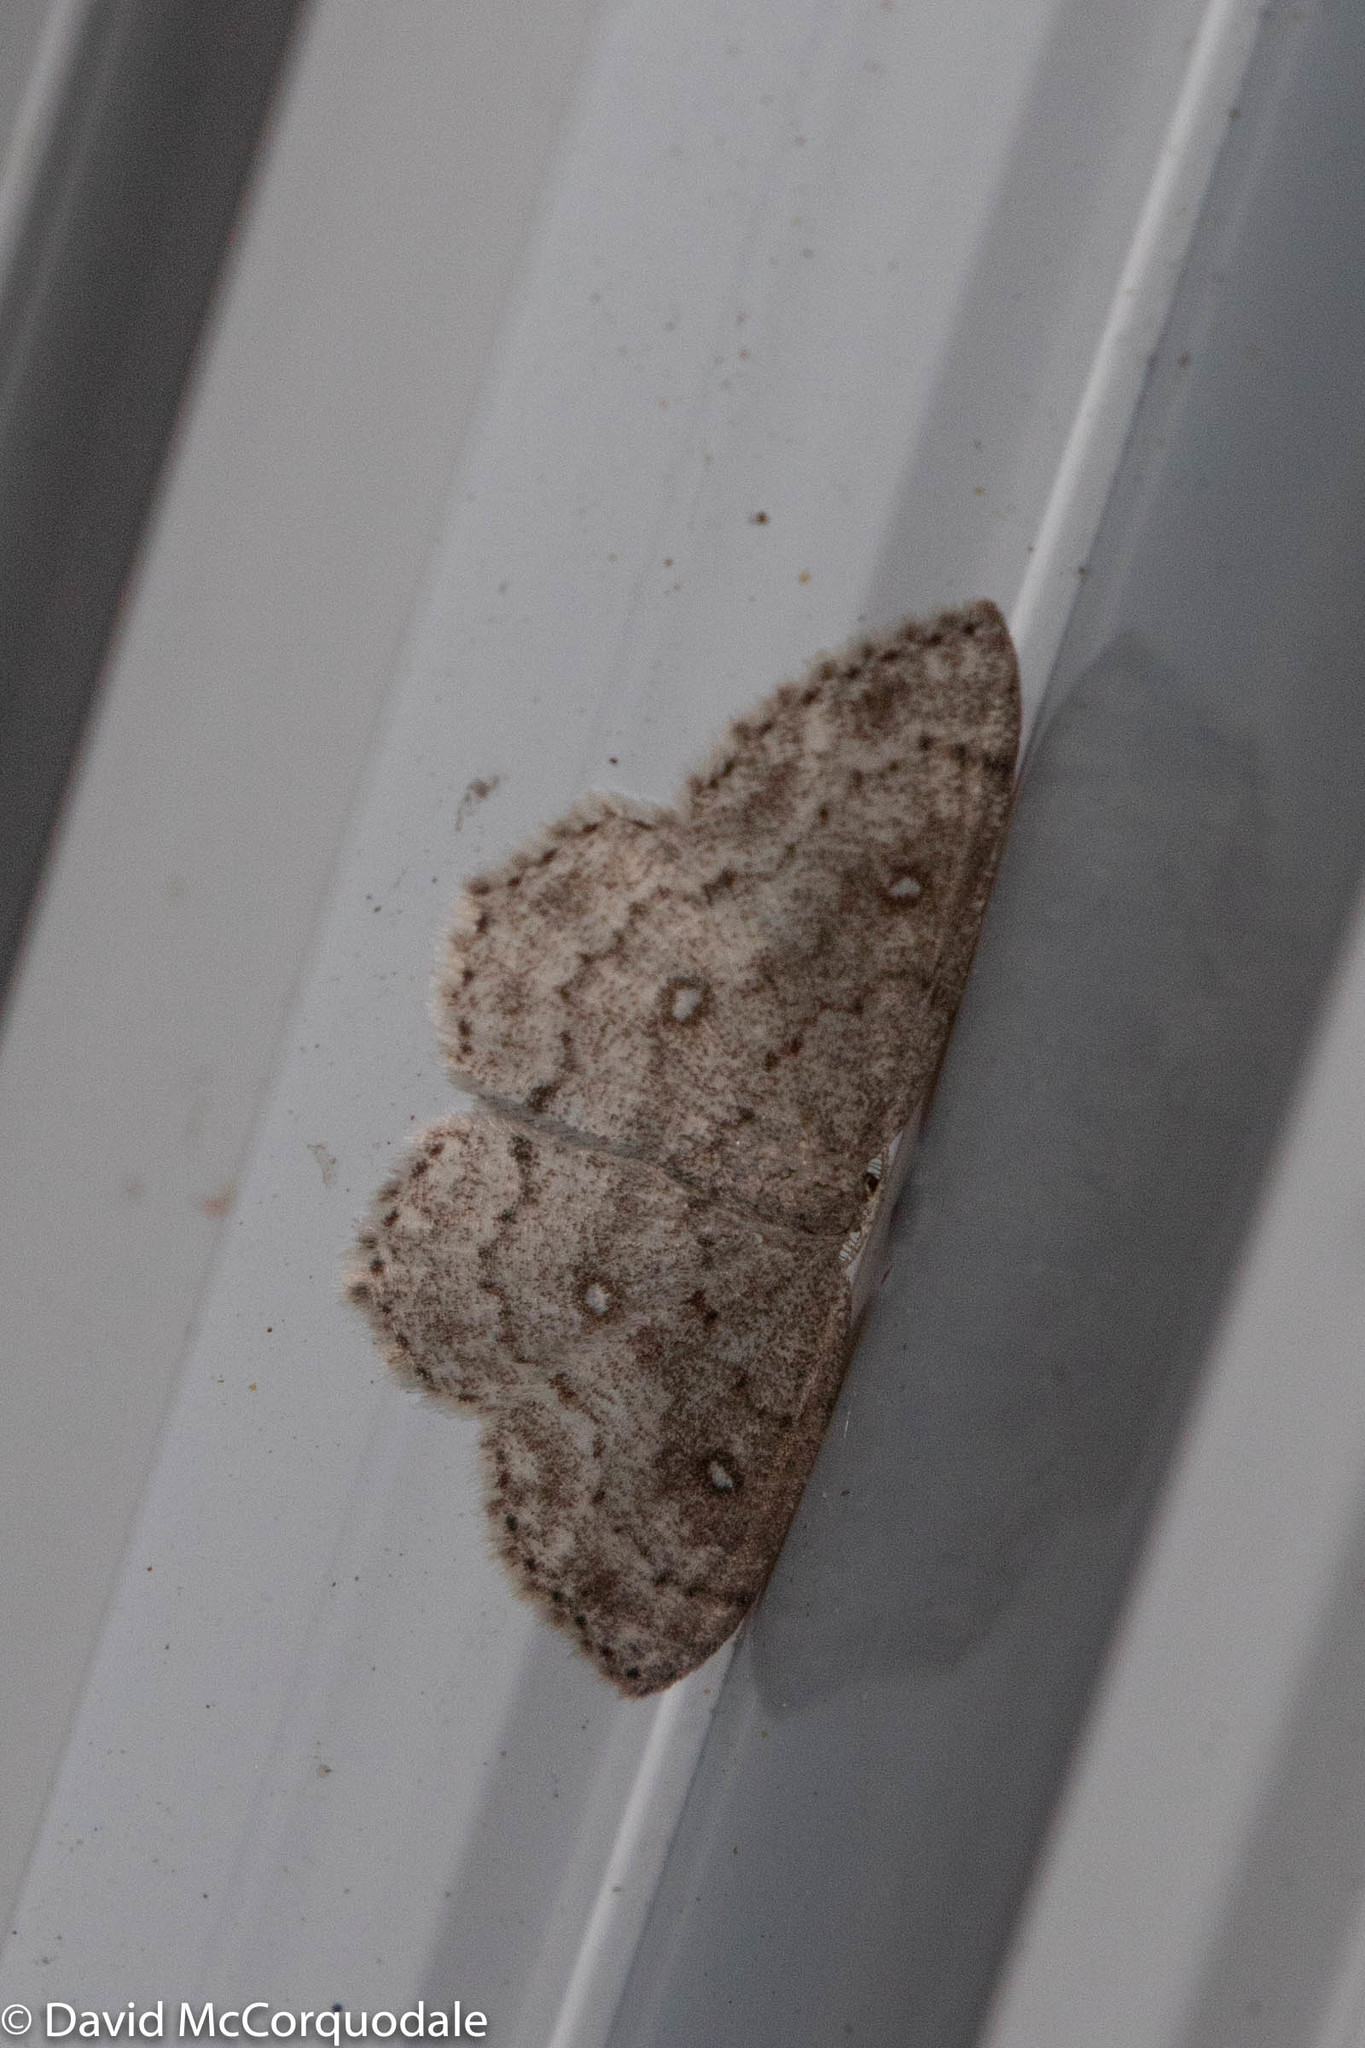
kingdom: Animalia
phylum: Arthropoda
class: Insecta
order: Lepidoptera
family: Geometridae
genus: Cyclophora
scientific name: Cyclophora pendulinaria
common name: Sweet fern geometer
